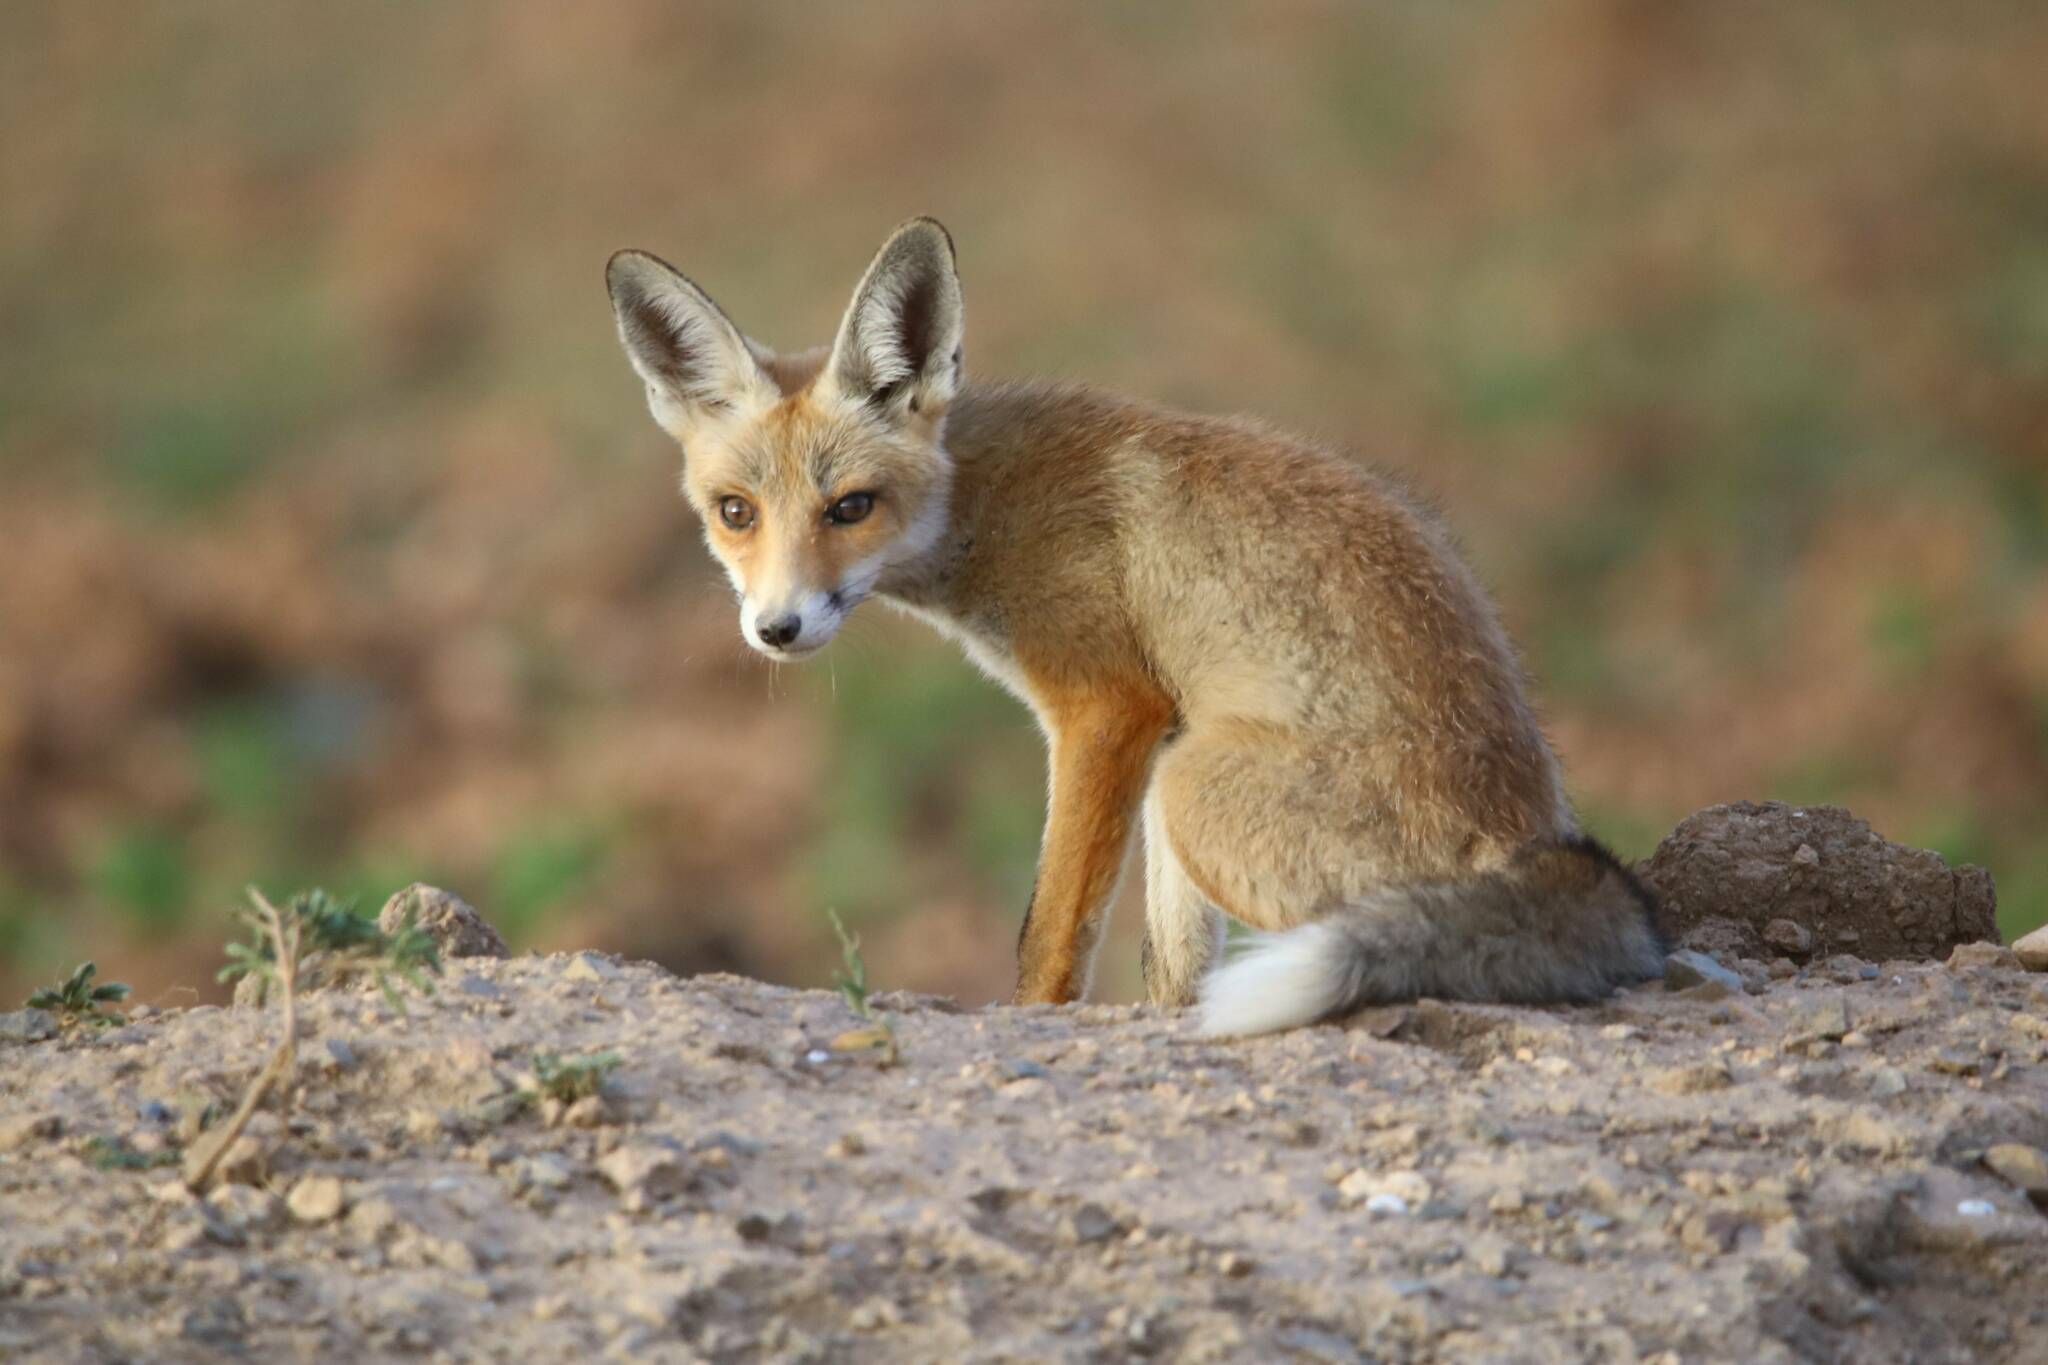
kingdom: Animalia
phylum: Chordata
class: Mammalia
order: Carnivora
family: Canidae
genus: Vulpes
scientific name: Vulpes vulpes
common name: Red fox
